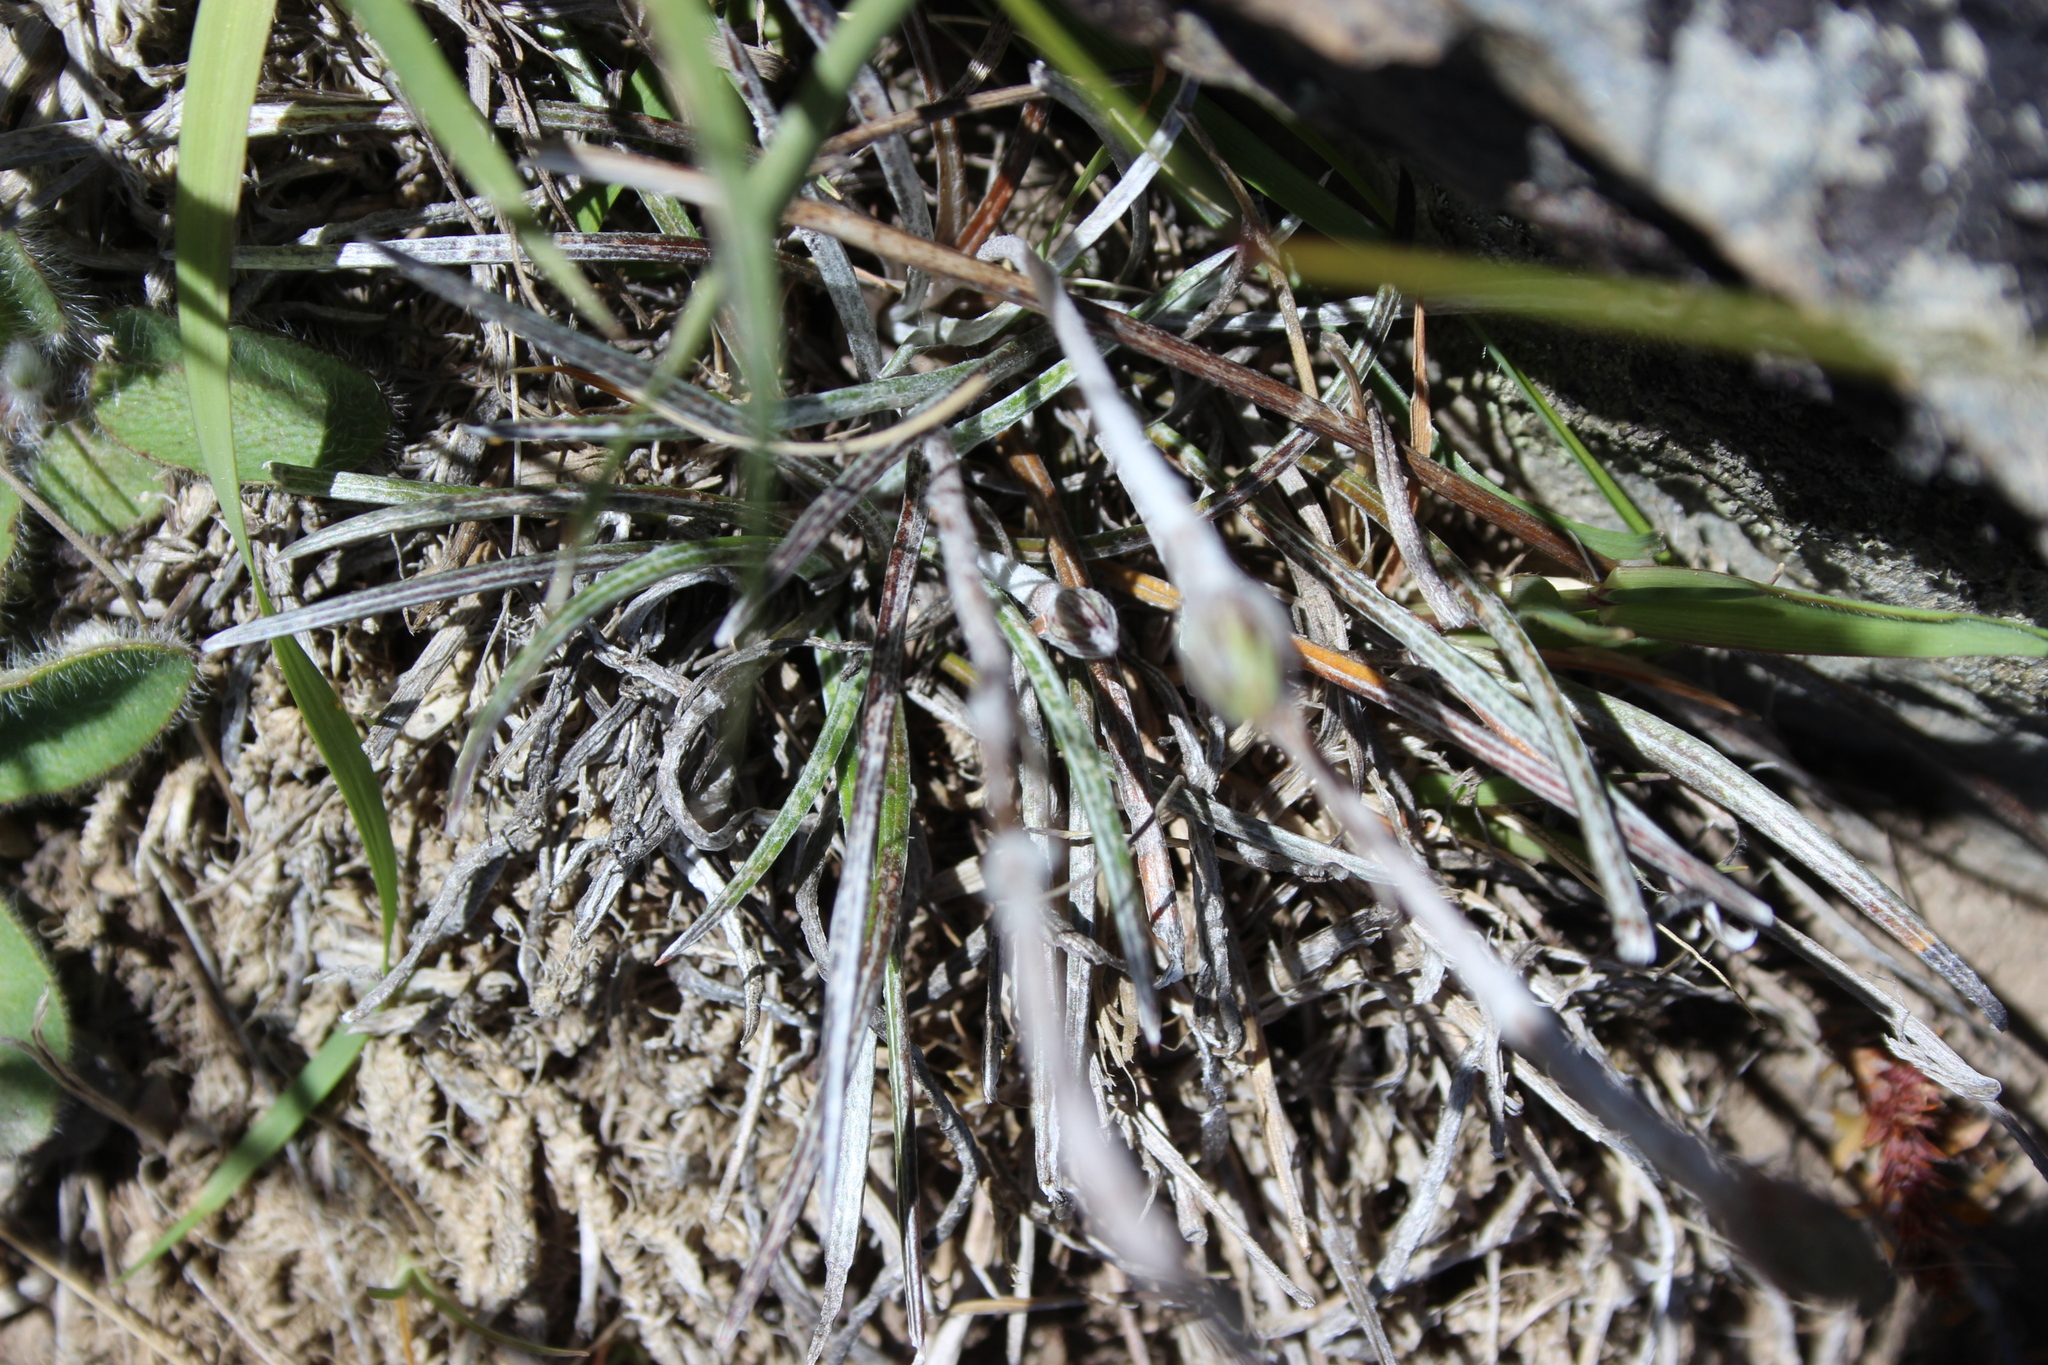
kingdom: Plantae
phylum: Tracheophyta
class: Magnoliopsida
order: Asterales
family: Asteraceae
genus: Celmisia
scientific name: Celmisia gracilenta
